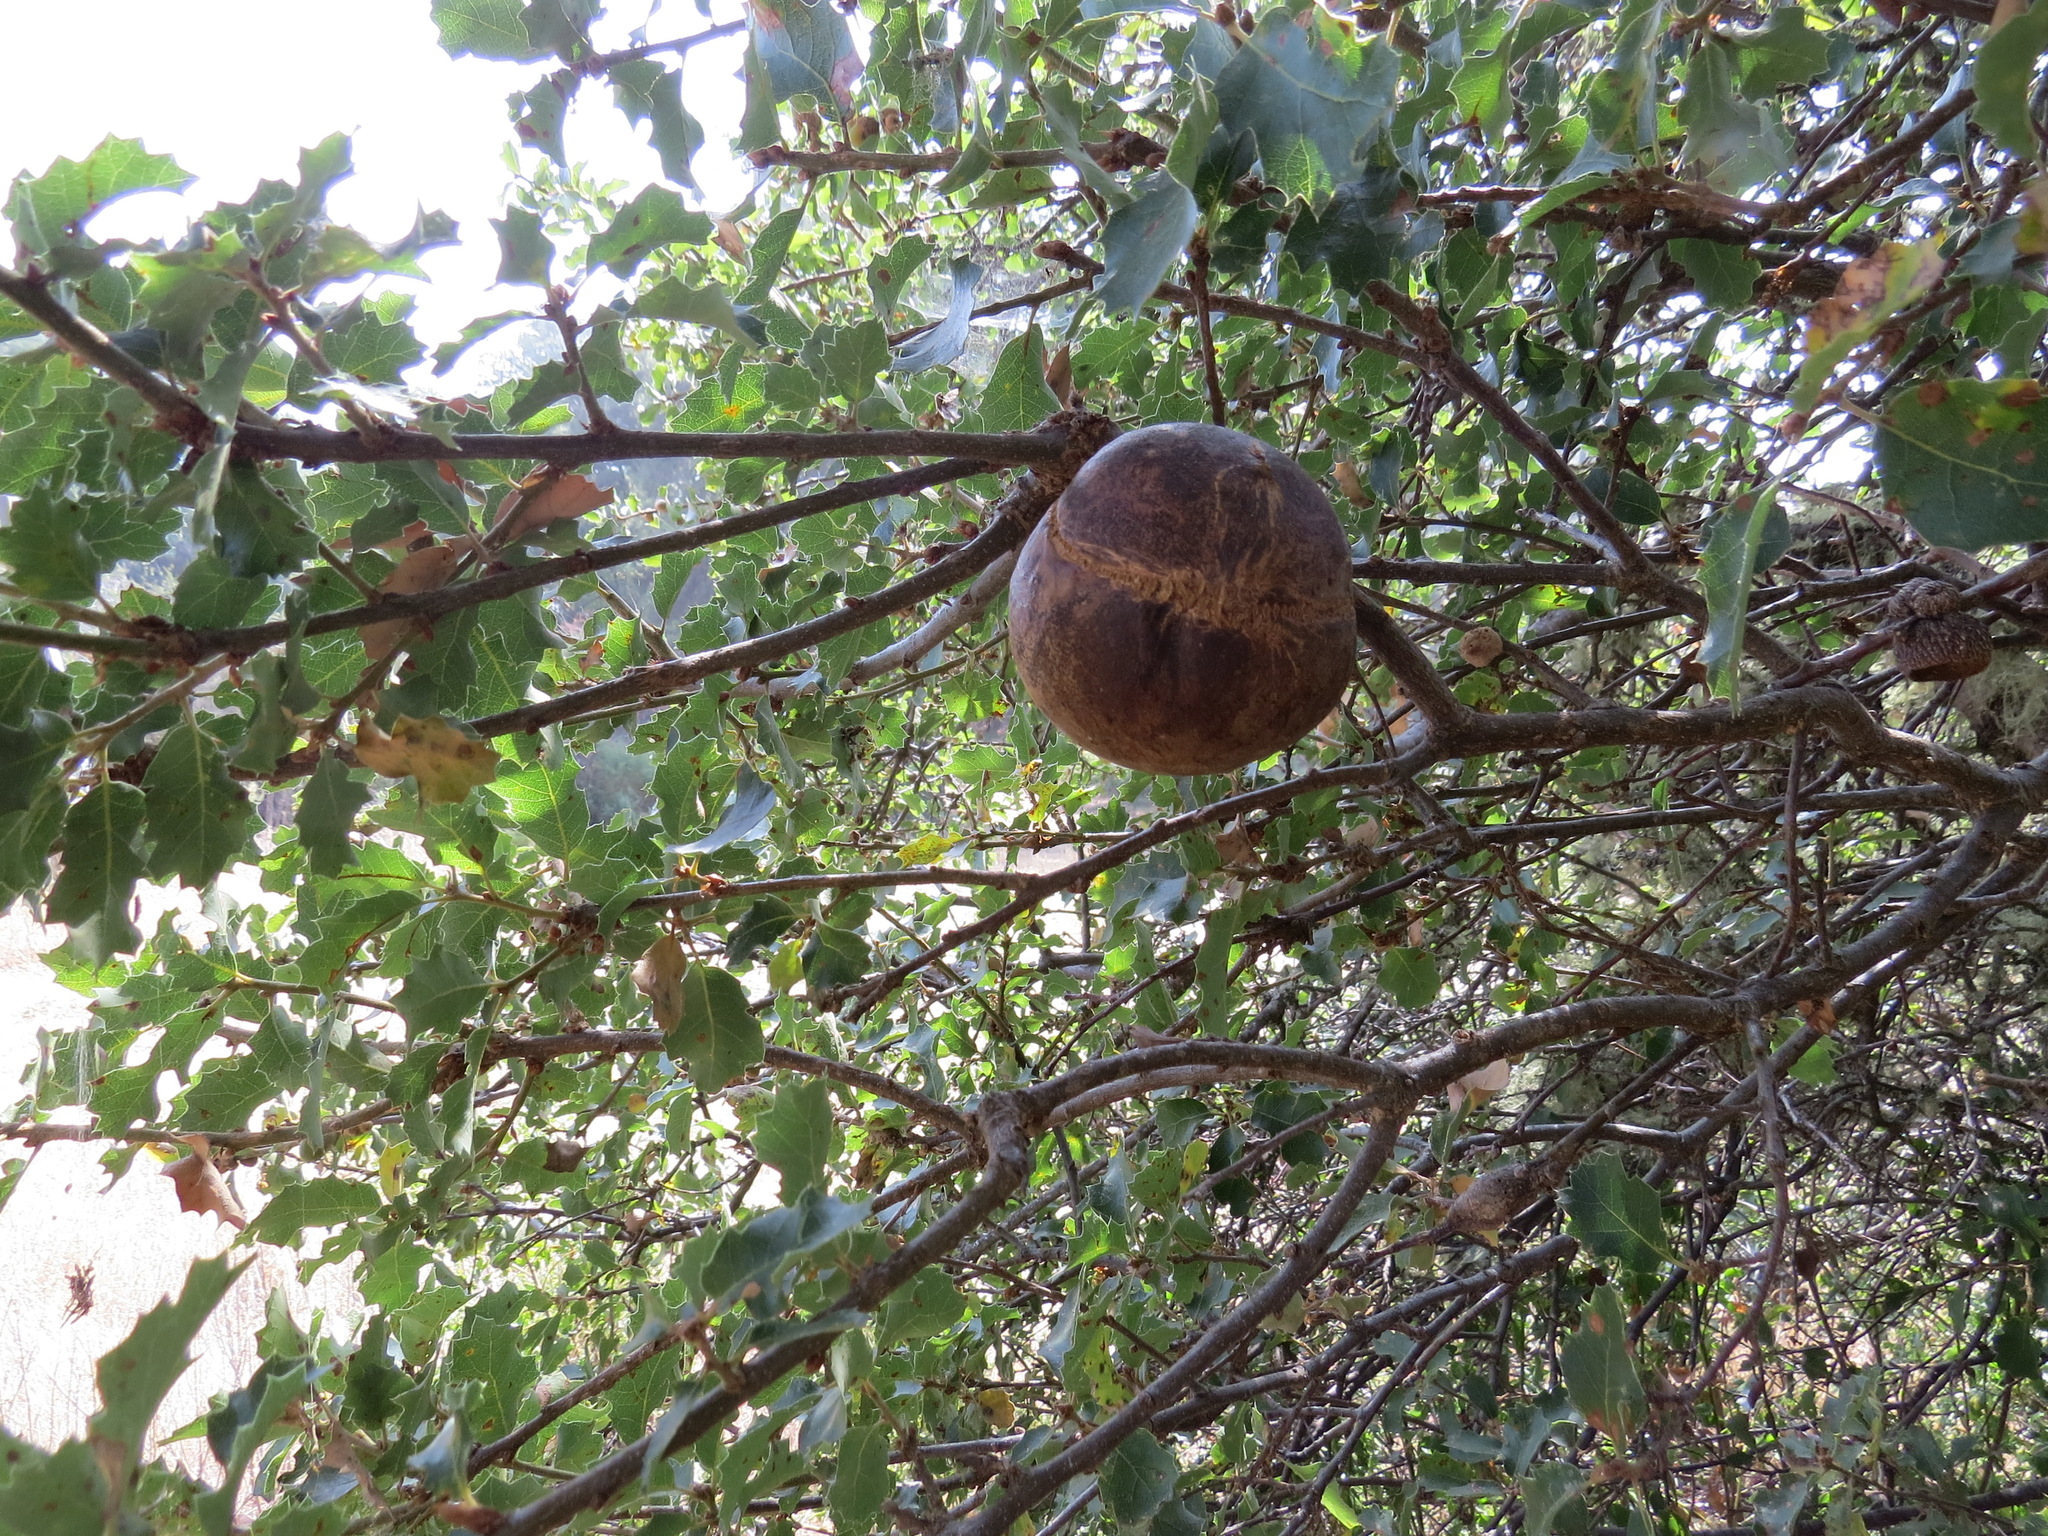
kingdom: Animalia
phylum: Arthropoda
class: Insecta
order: Hymenoptera
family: Cynipidae
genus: Andricus
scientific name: Andricus quercuscalifornicus
